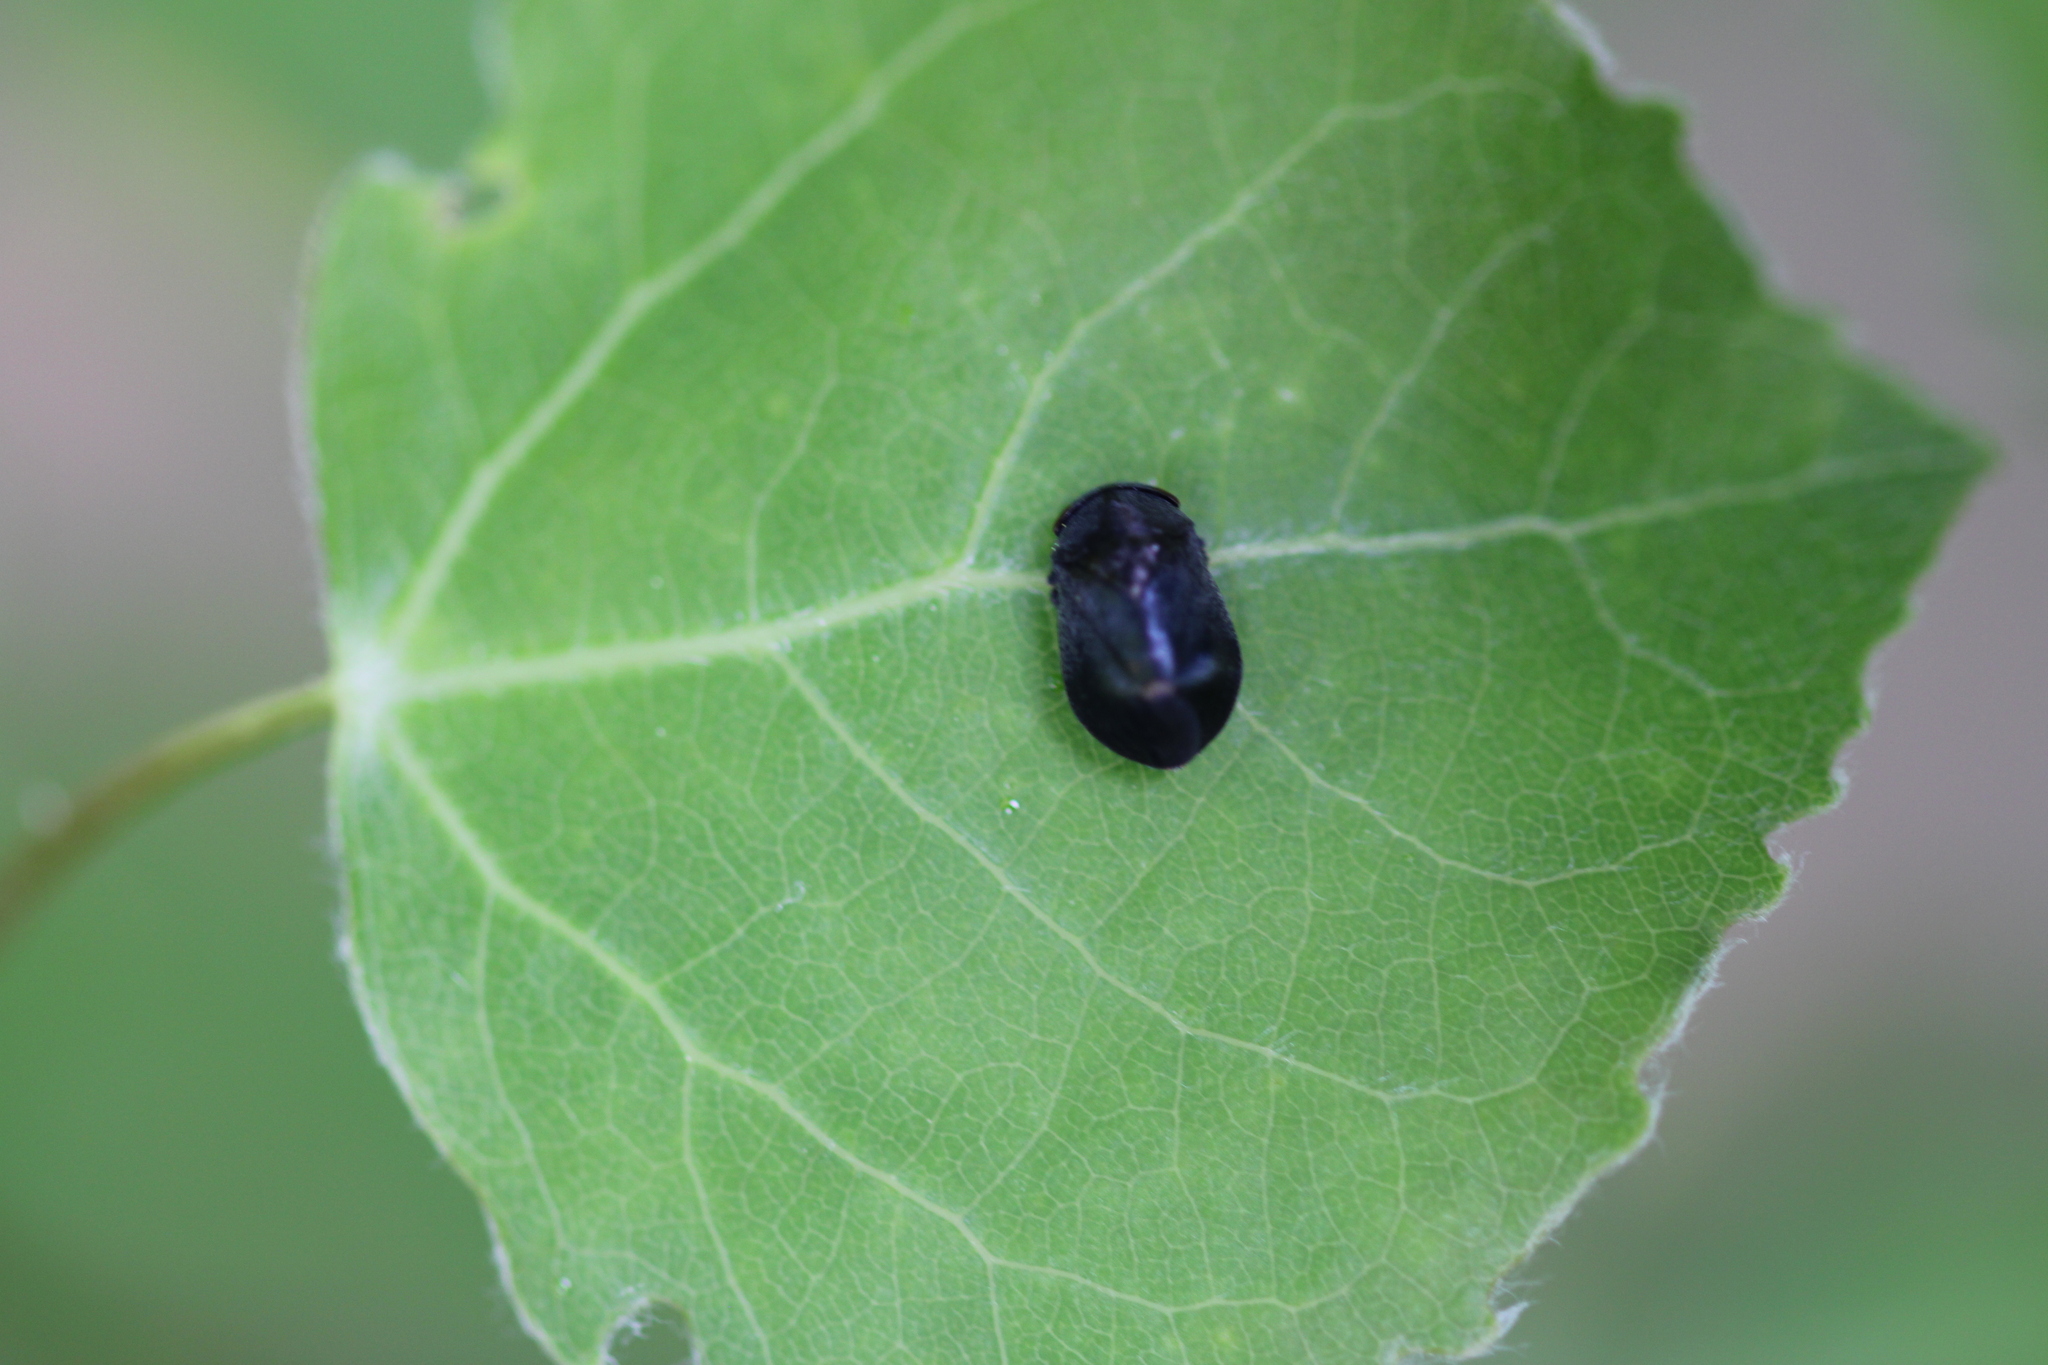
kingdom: Animalia
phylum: Arthropoda
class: Insecta
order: Hemiptera
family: Cicadellidae
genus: Penthimia
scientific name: Penthimia nigra
